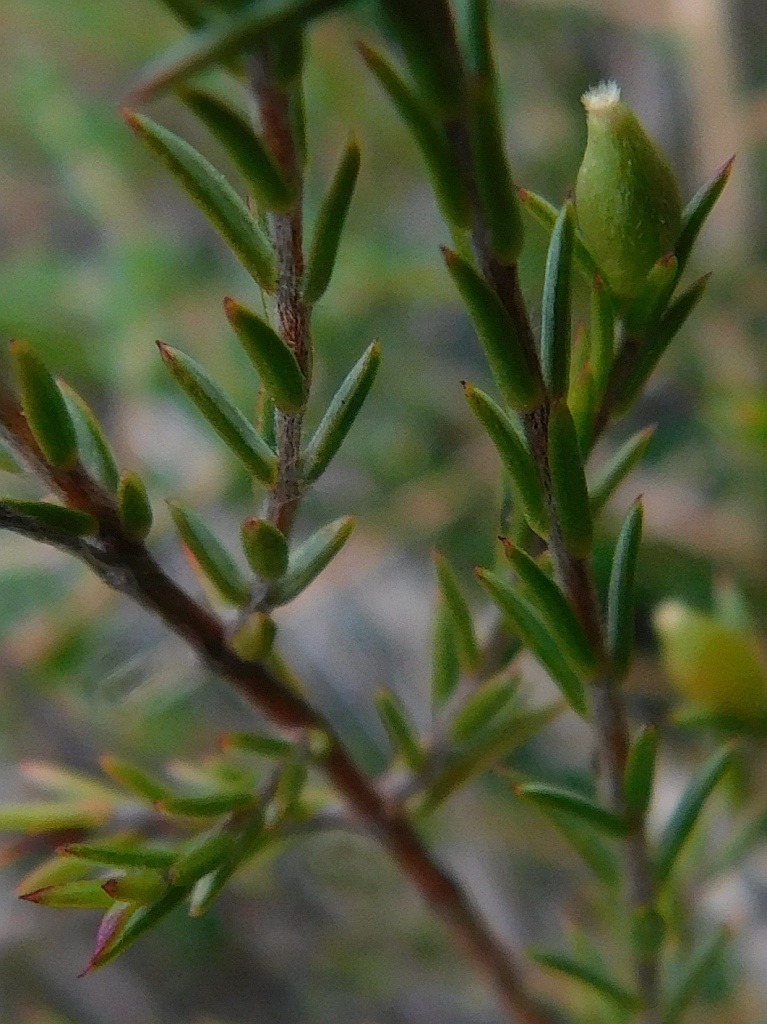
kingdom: Plantae
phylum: Tracheophyta
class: Magnoliopsida
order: Malvales
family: Thymelaeaceae
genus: Lachnaea
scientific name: Lachnaea filicaulis
